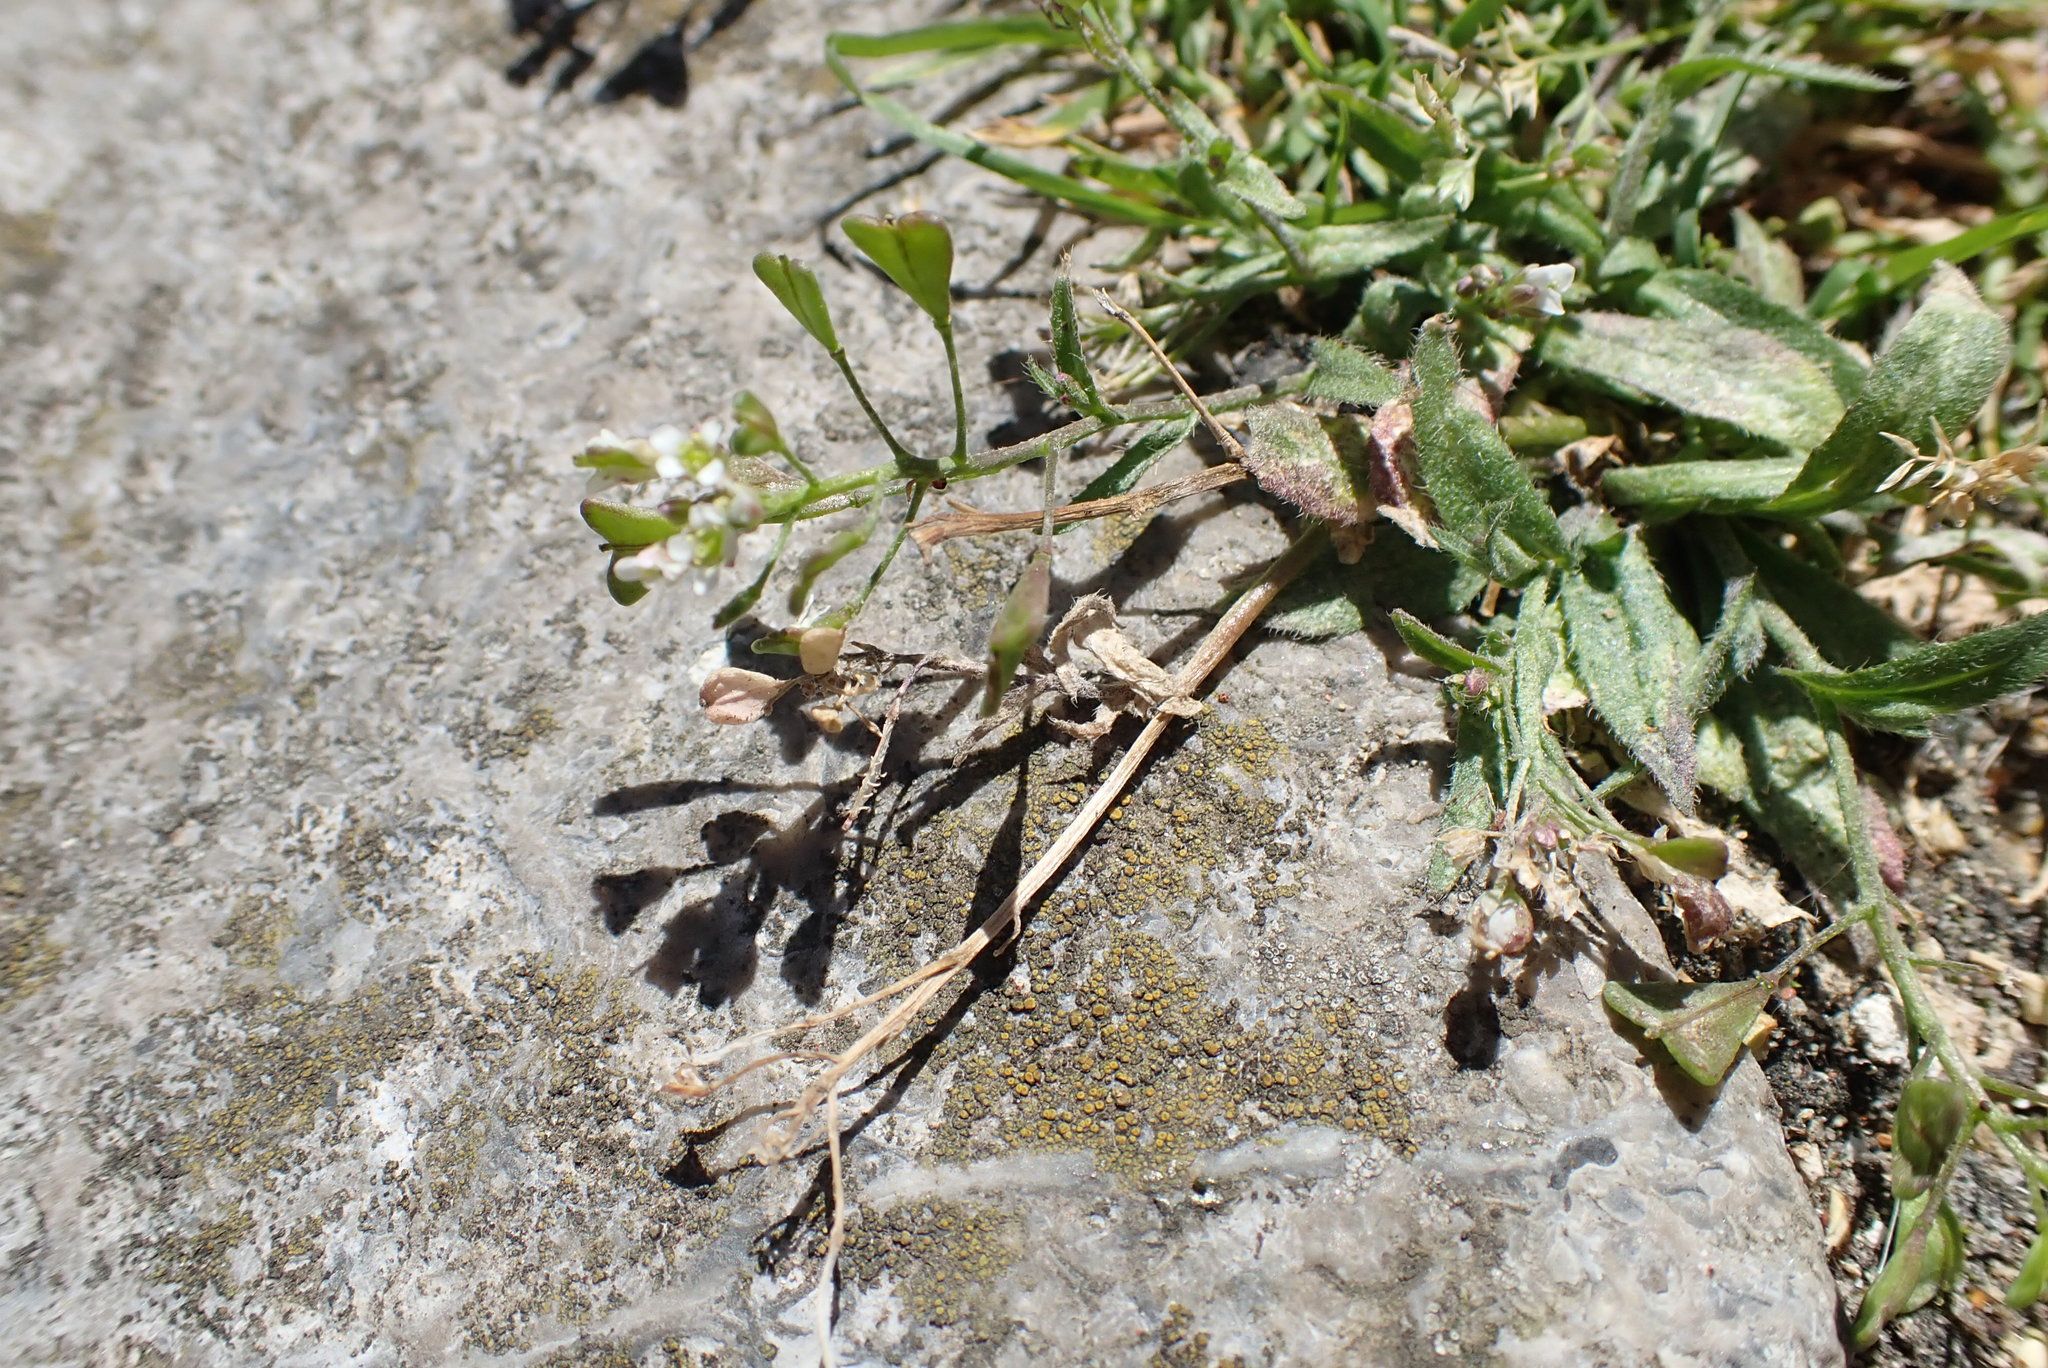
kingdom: Plantae
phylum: Tracheophyta
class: Magnoliopsida
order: Brassicales
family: Brassicaceae
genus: Capsella
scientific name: Capsella bursa-pastoris
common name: Shepherd's purse
